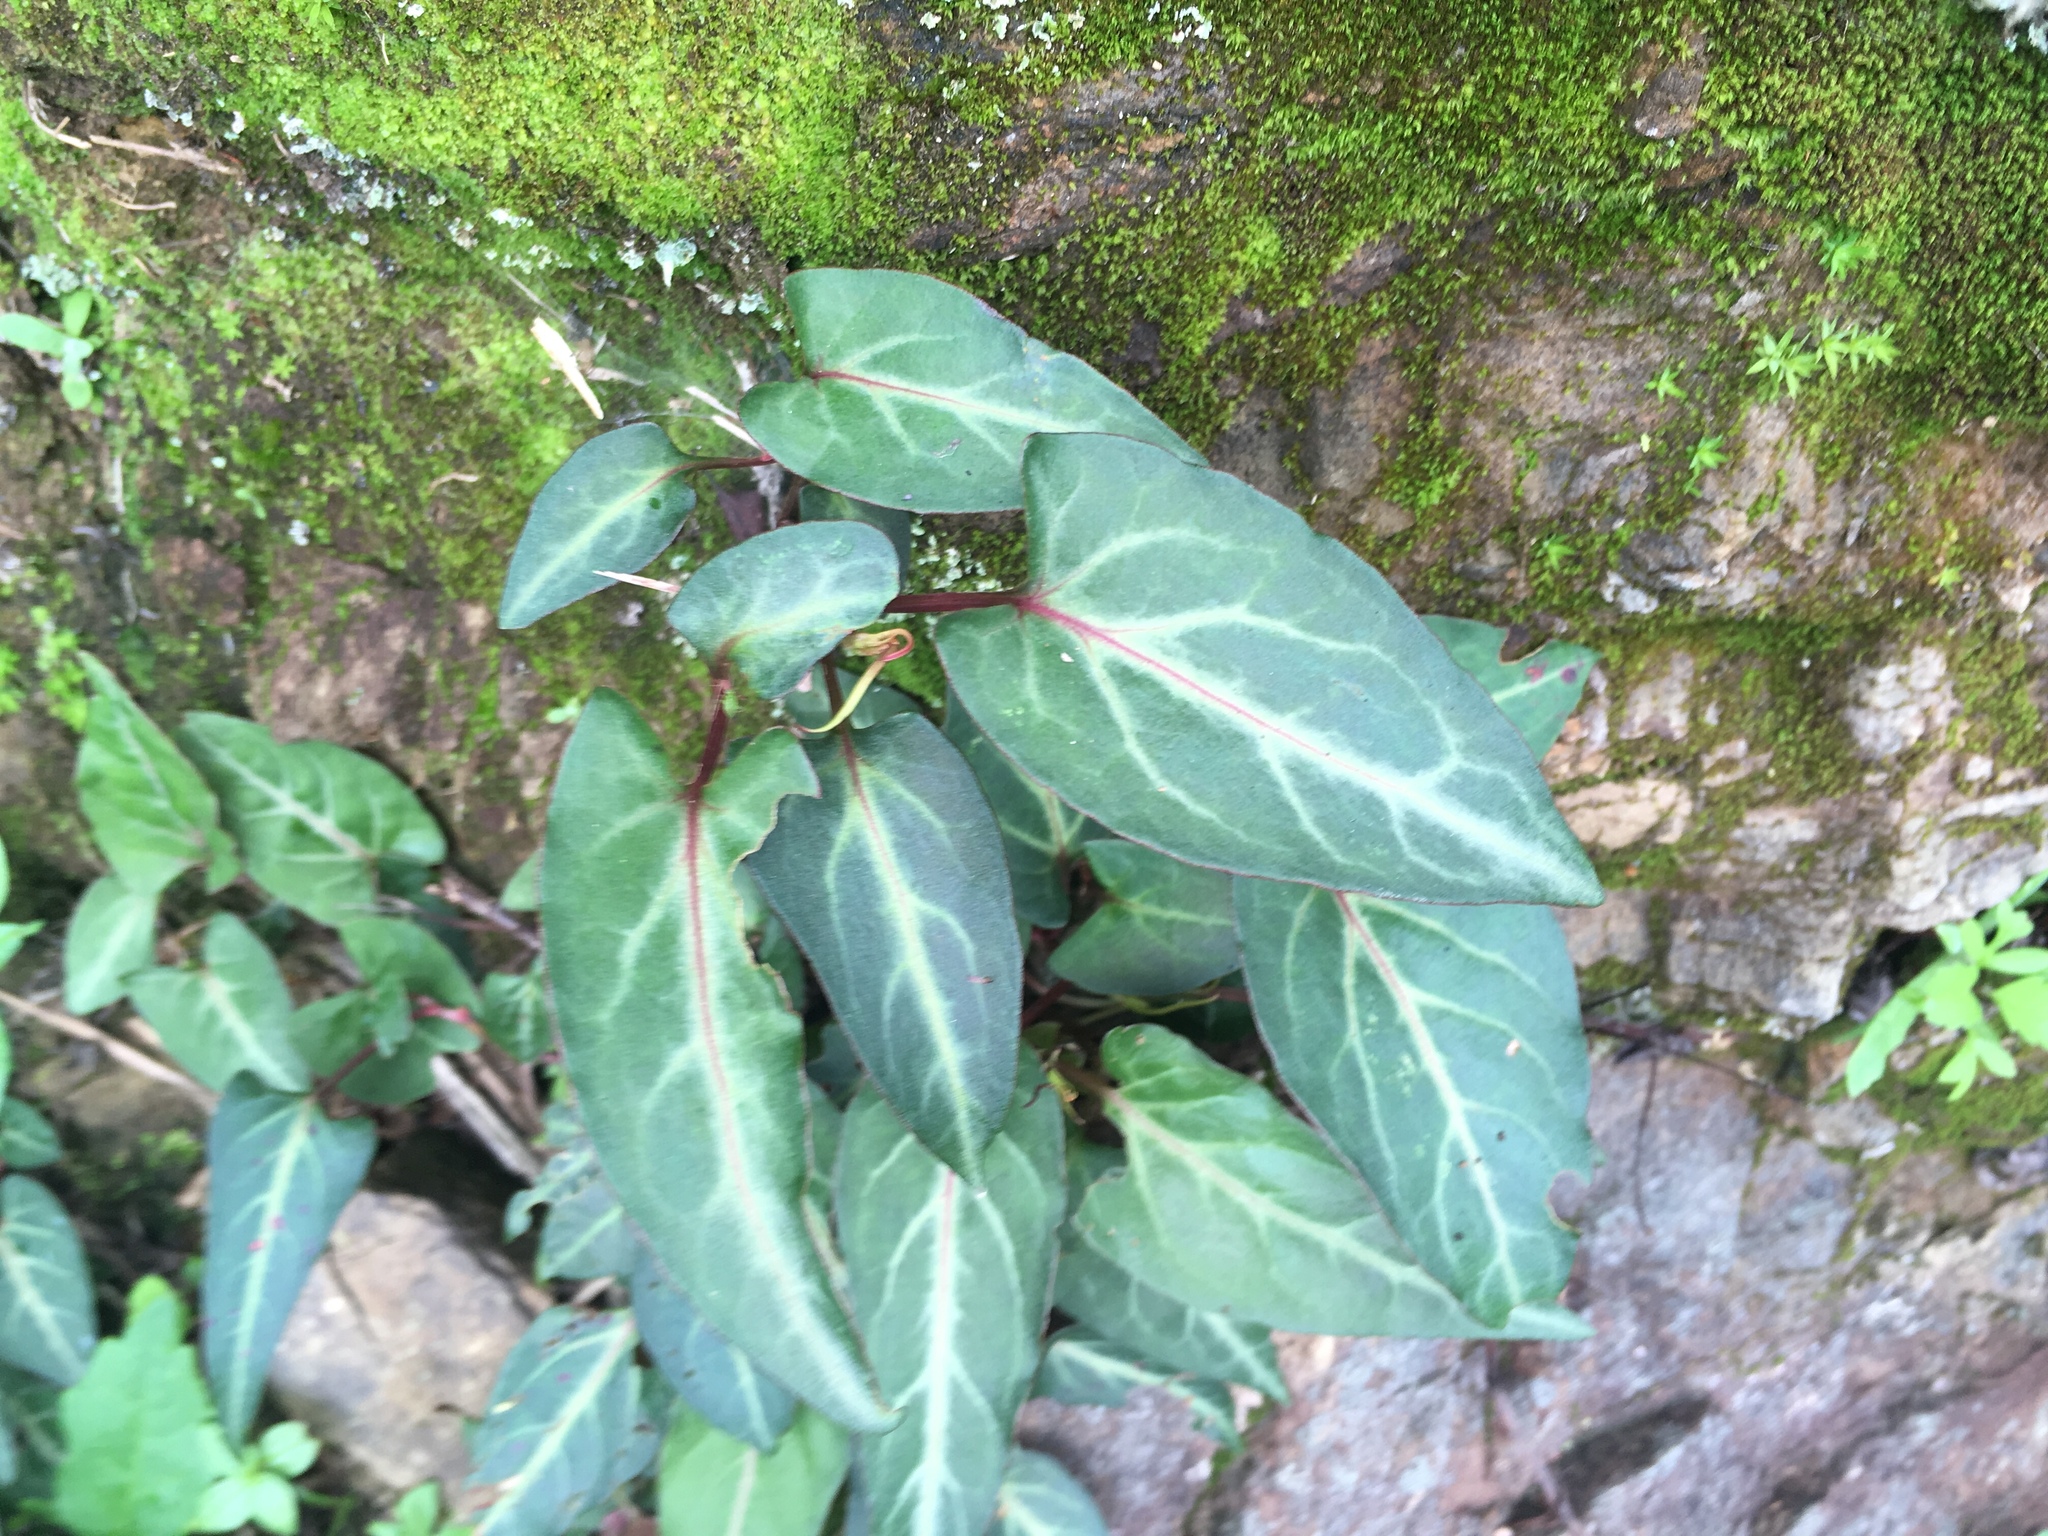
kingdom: Plantae
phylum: Tracheophyta
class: Magnoliopsida
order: Caryophyllales
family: Polygonaceae
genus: Reynoutria
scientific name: Reynoutria multiflora
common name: Chinese fleeceflower
